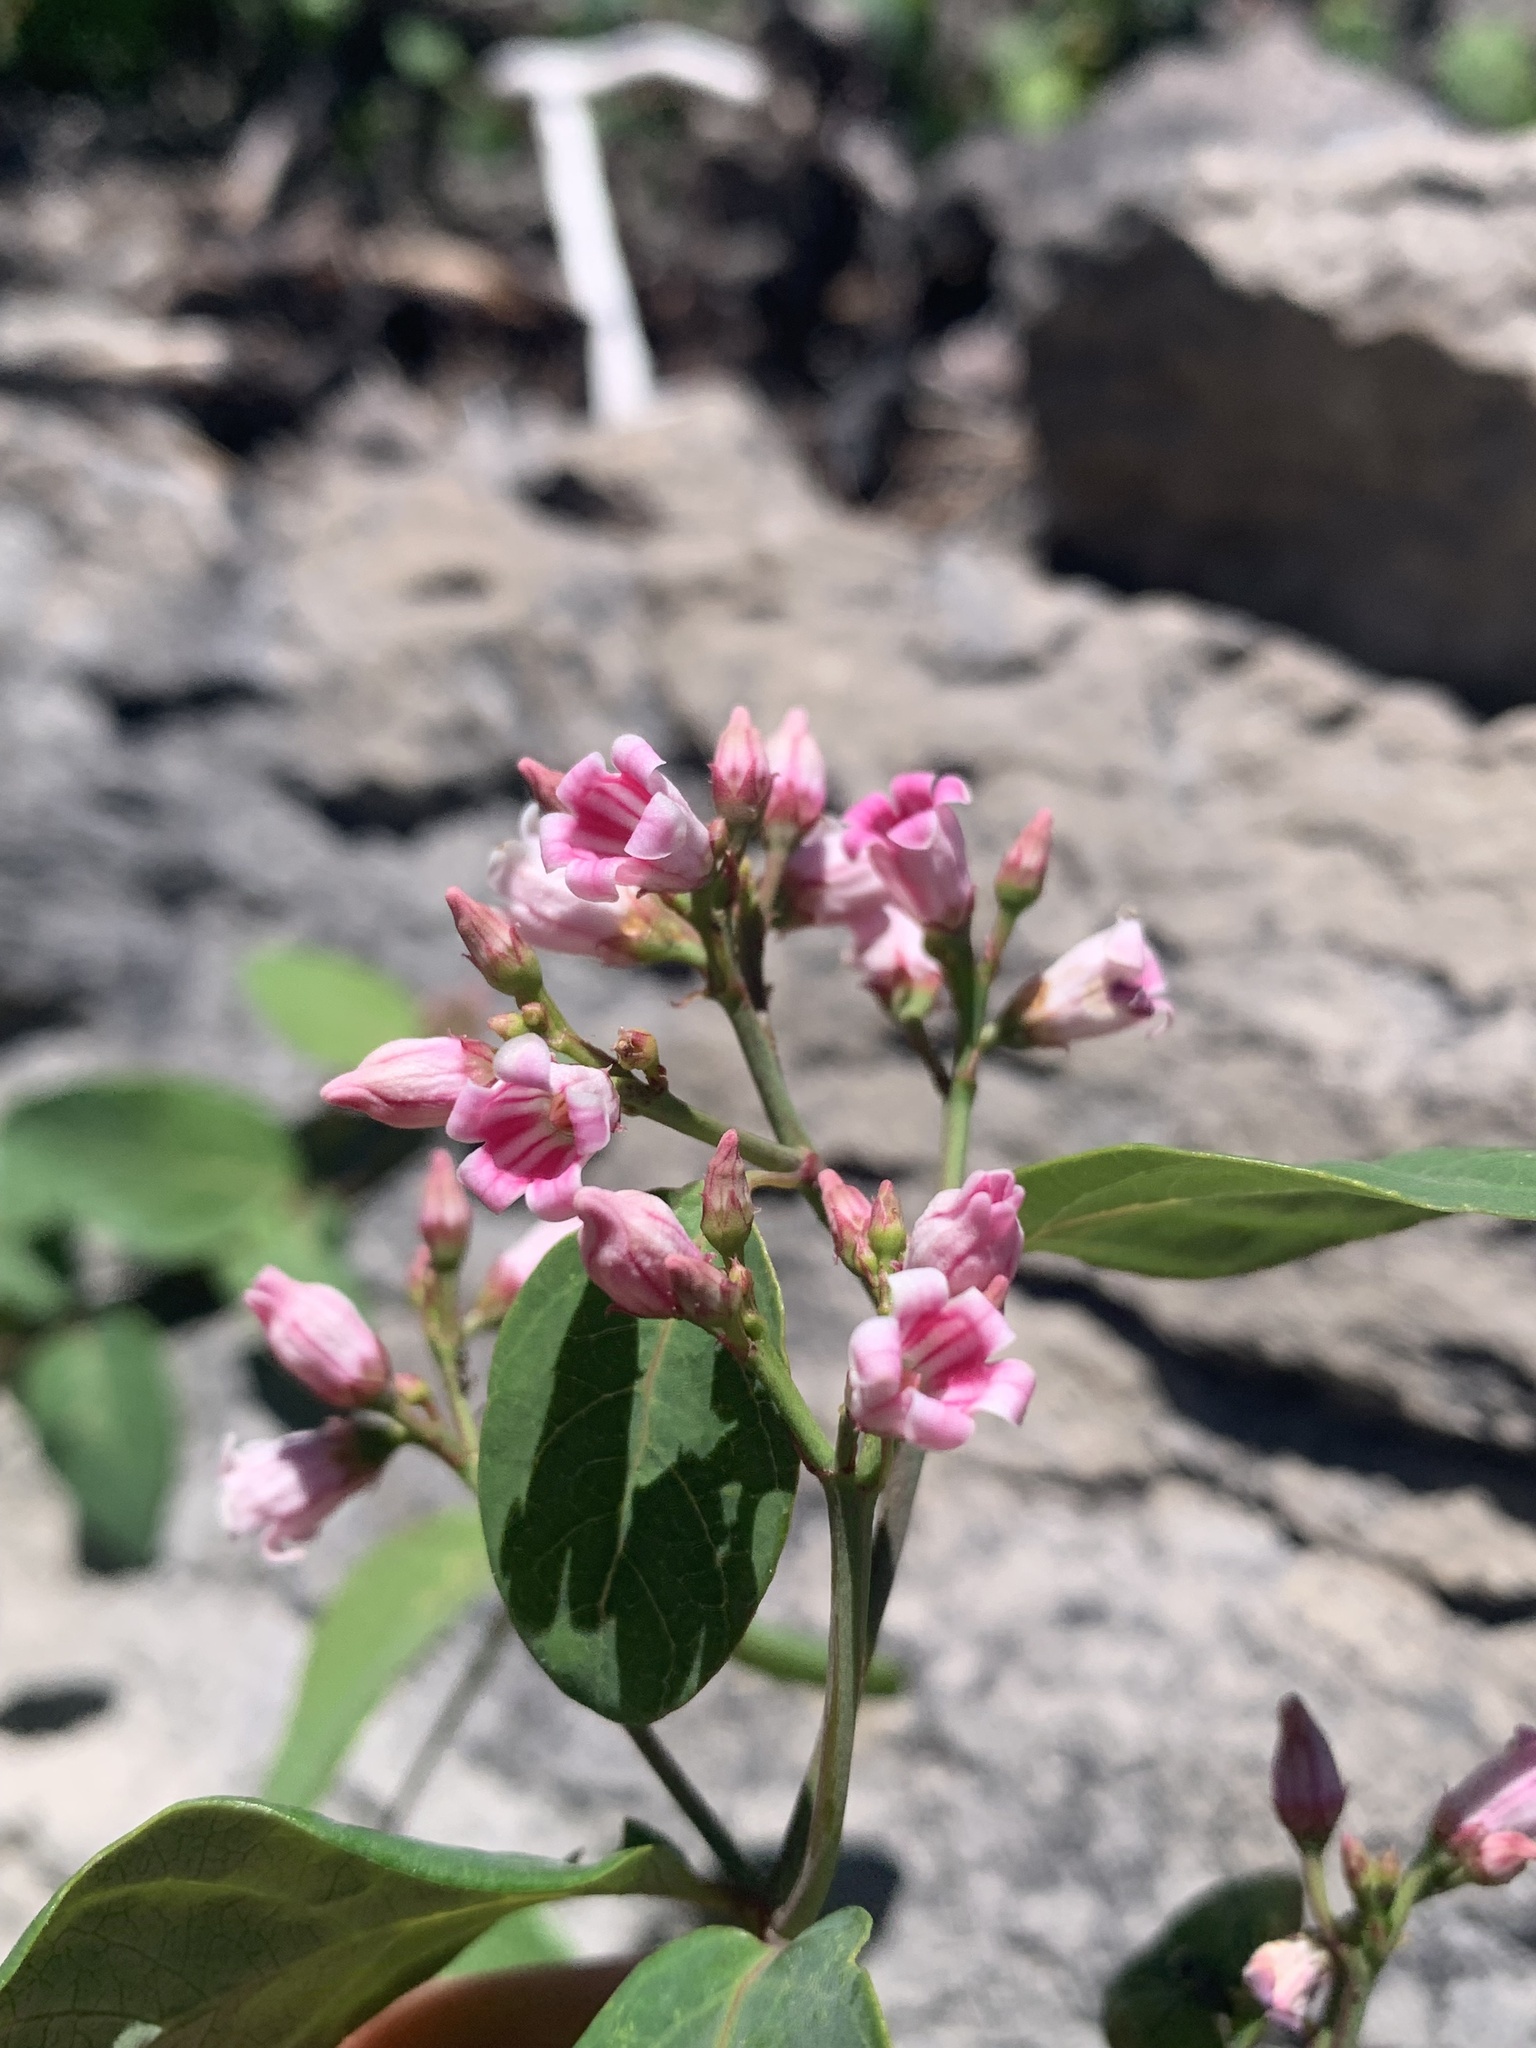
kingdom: Plantae
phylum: Tracheophyta
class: Magnoliopsida
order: Gentianales
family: Apocynaceae
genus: Apocynum
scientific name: Apocynum androsaemifolium
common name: Spreading dogbane
